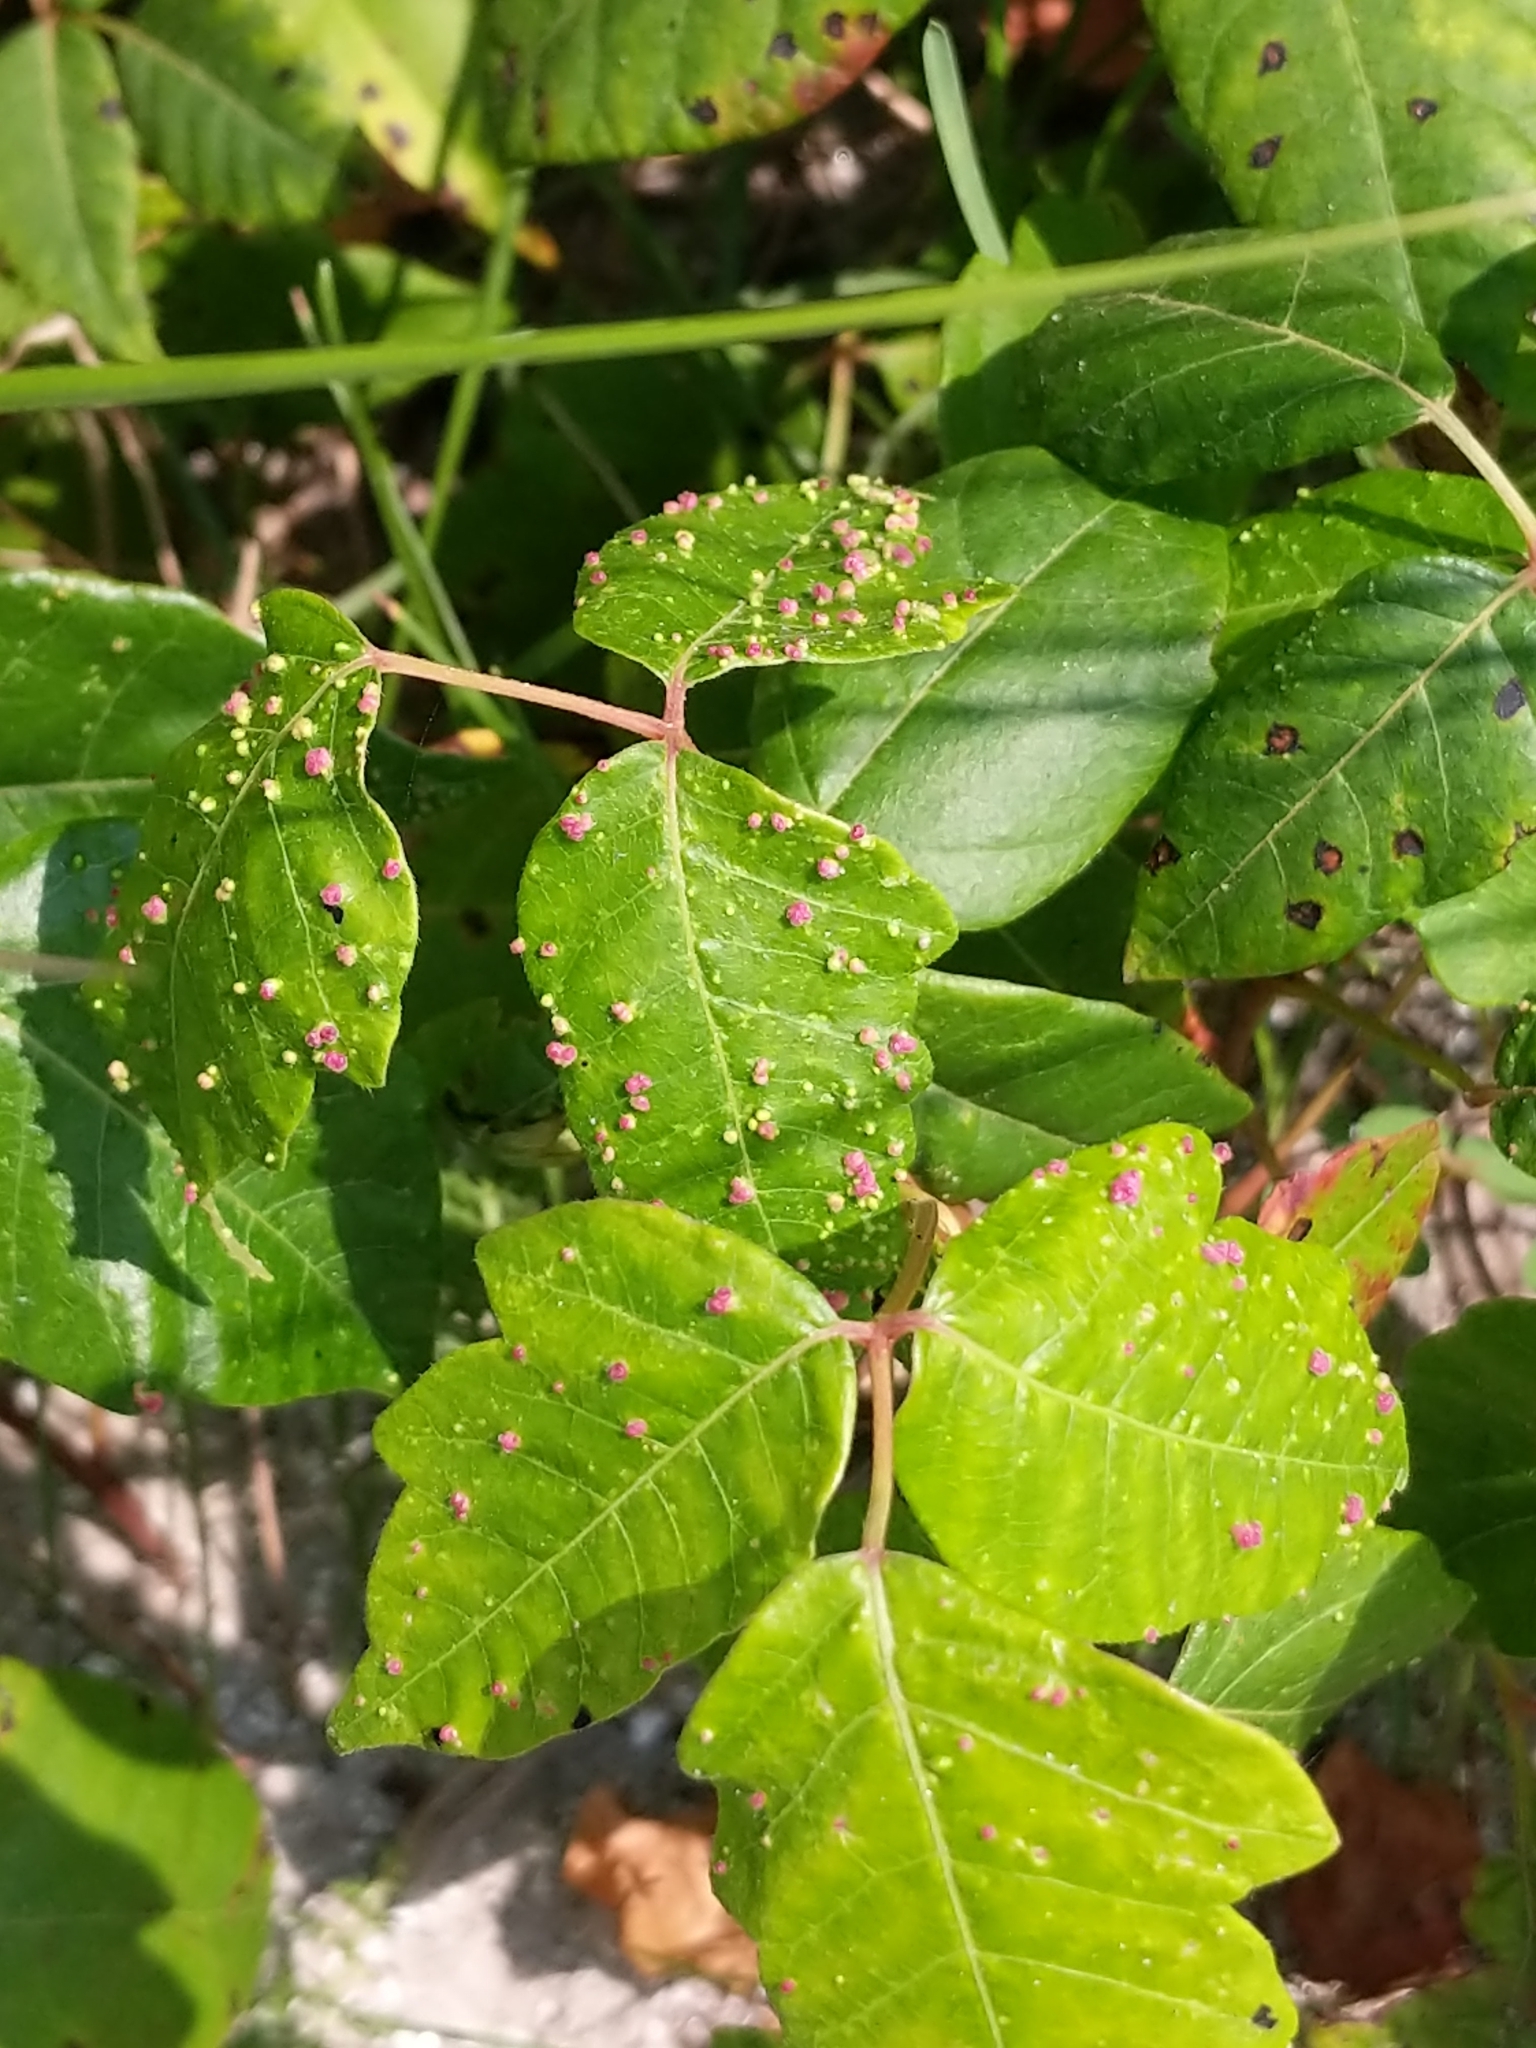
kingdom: Animalia
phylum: Arthropoda
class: Arachnida
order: Trombidiformes
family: Eriophyidae
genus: Aculops
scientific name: Aculops
